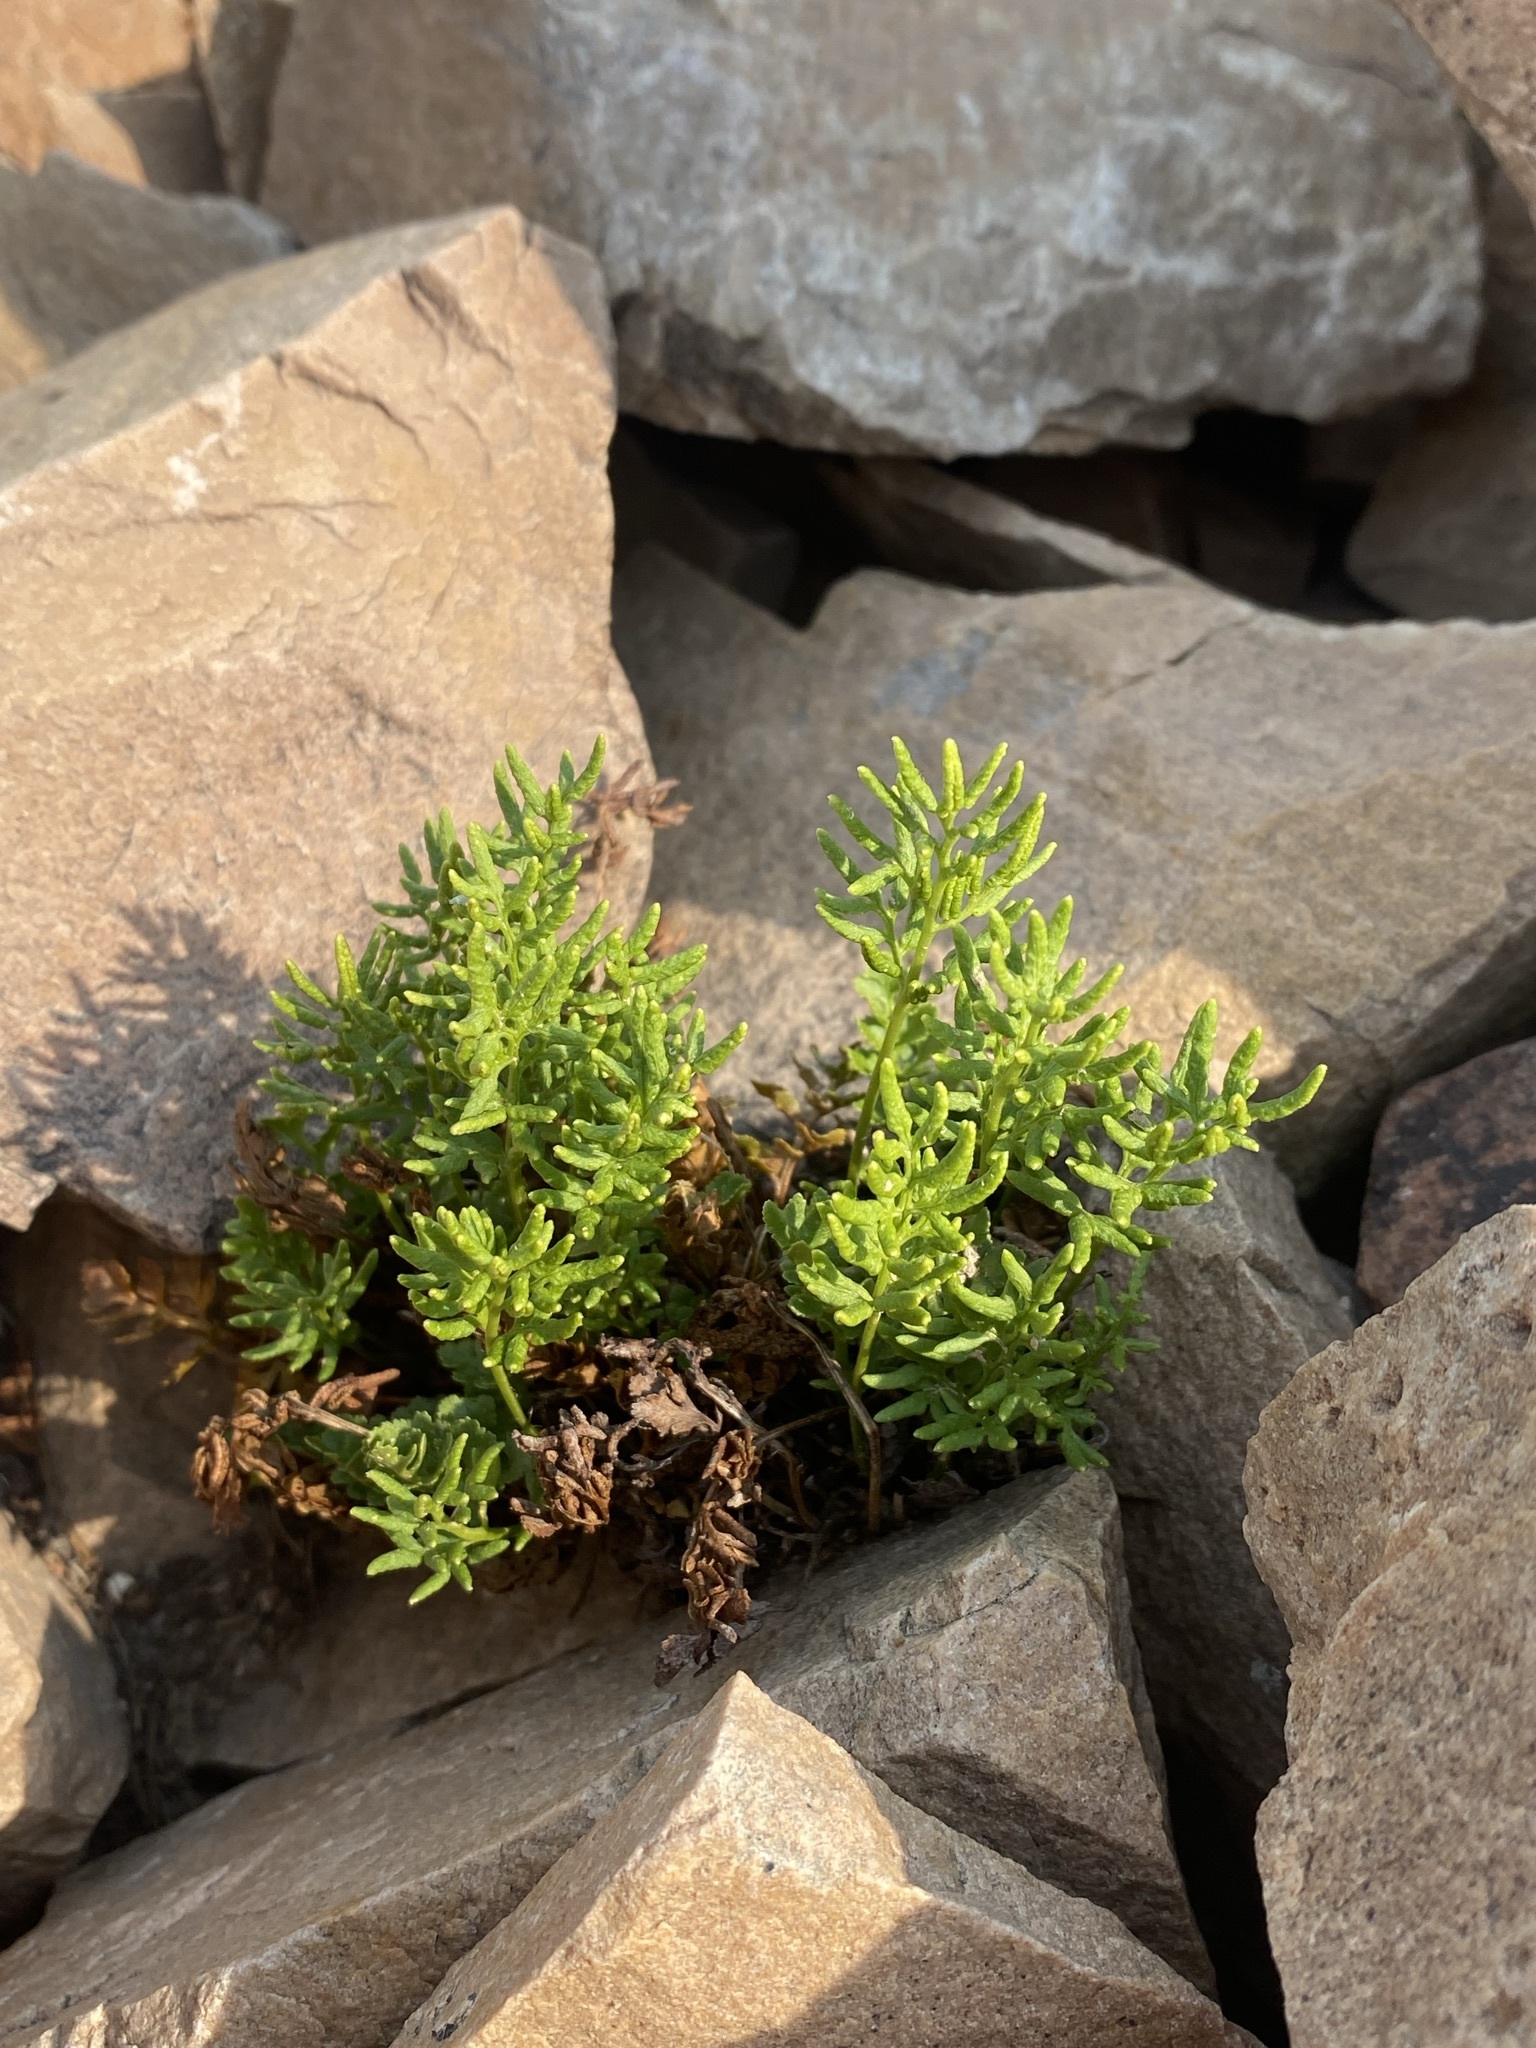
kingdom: Plantae
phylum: Tracheophyta
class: Polypodiopsida
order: Polypodiales
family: Pteridaceae
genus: Cryptogramma
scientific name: Cryptogramma acrostichoides
